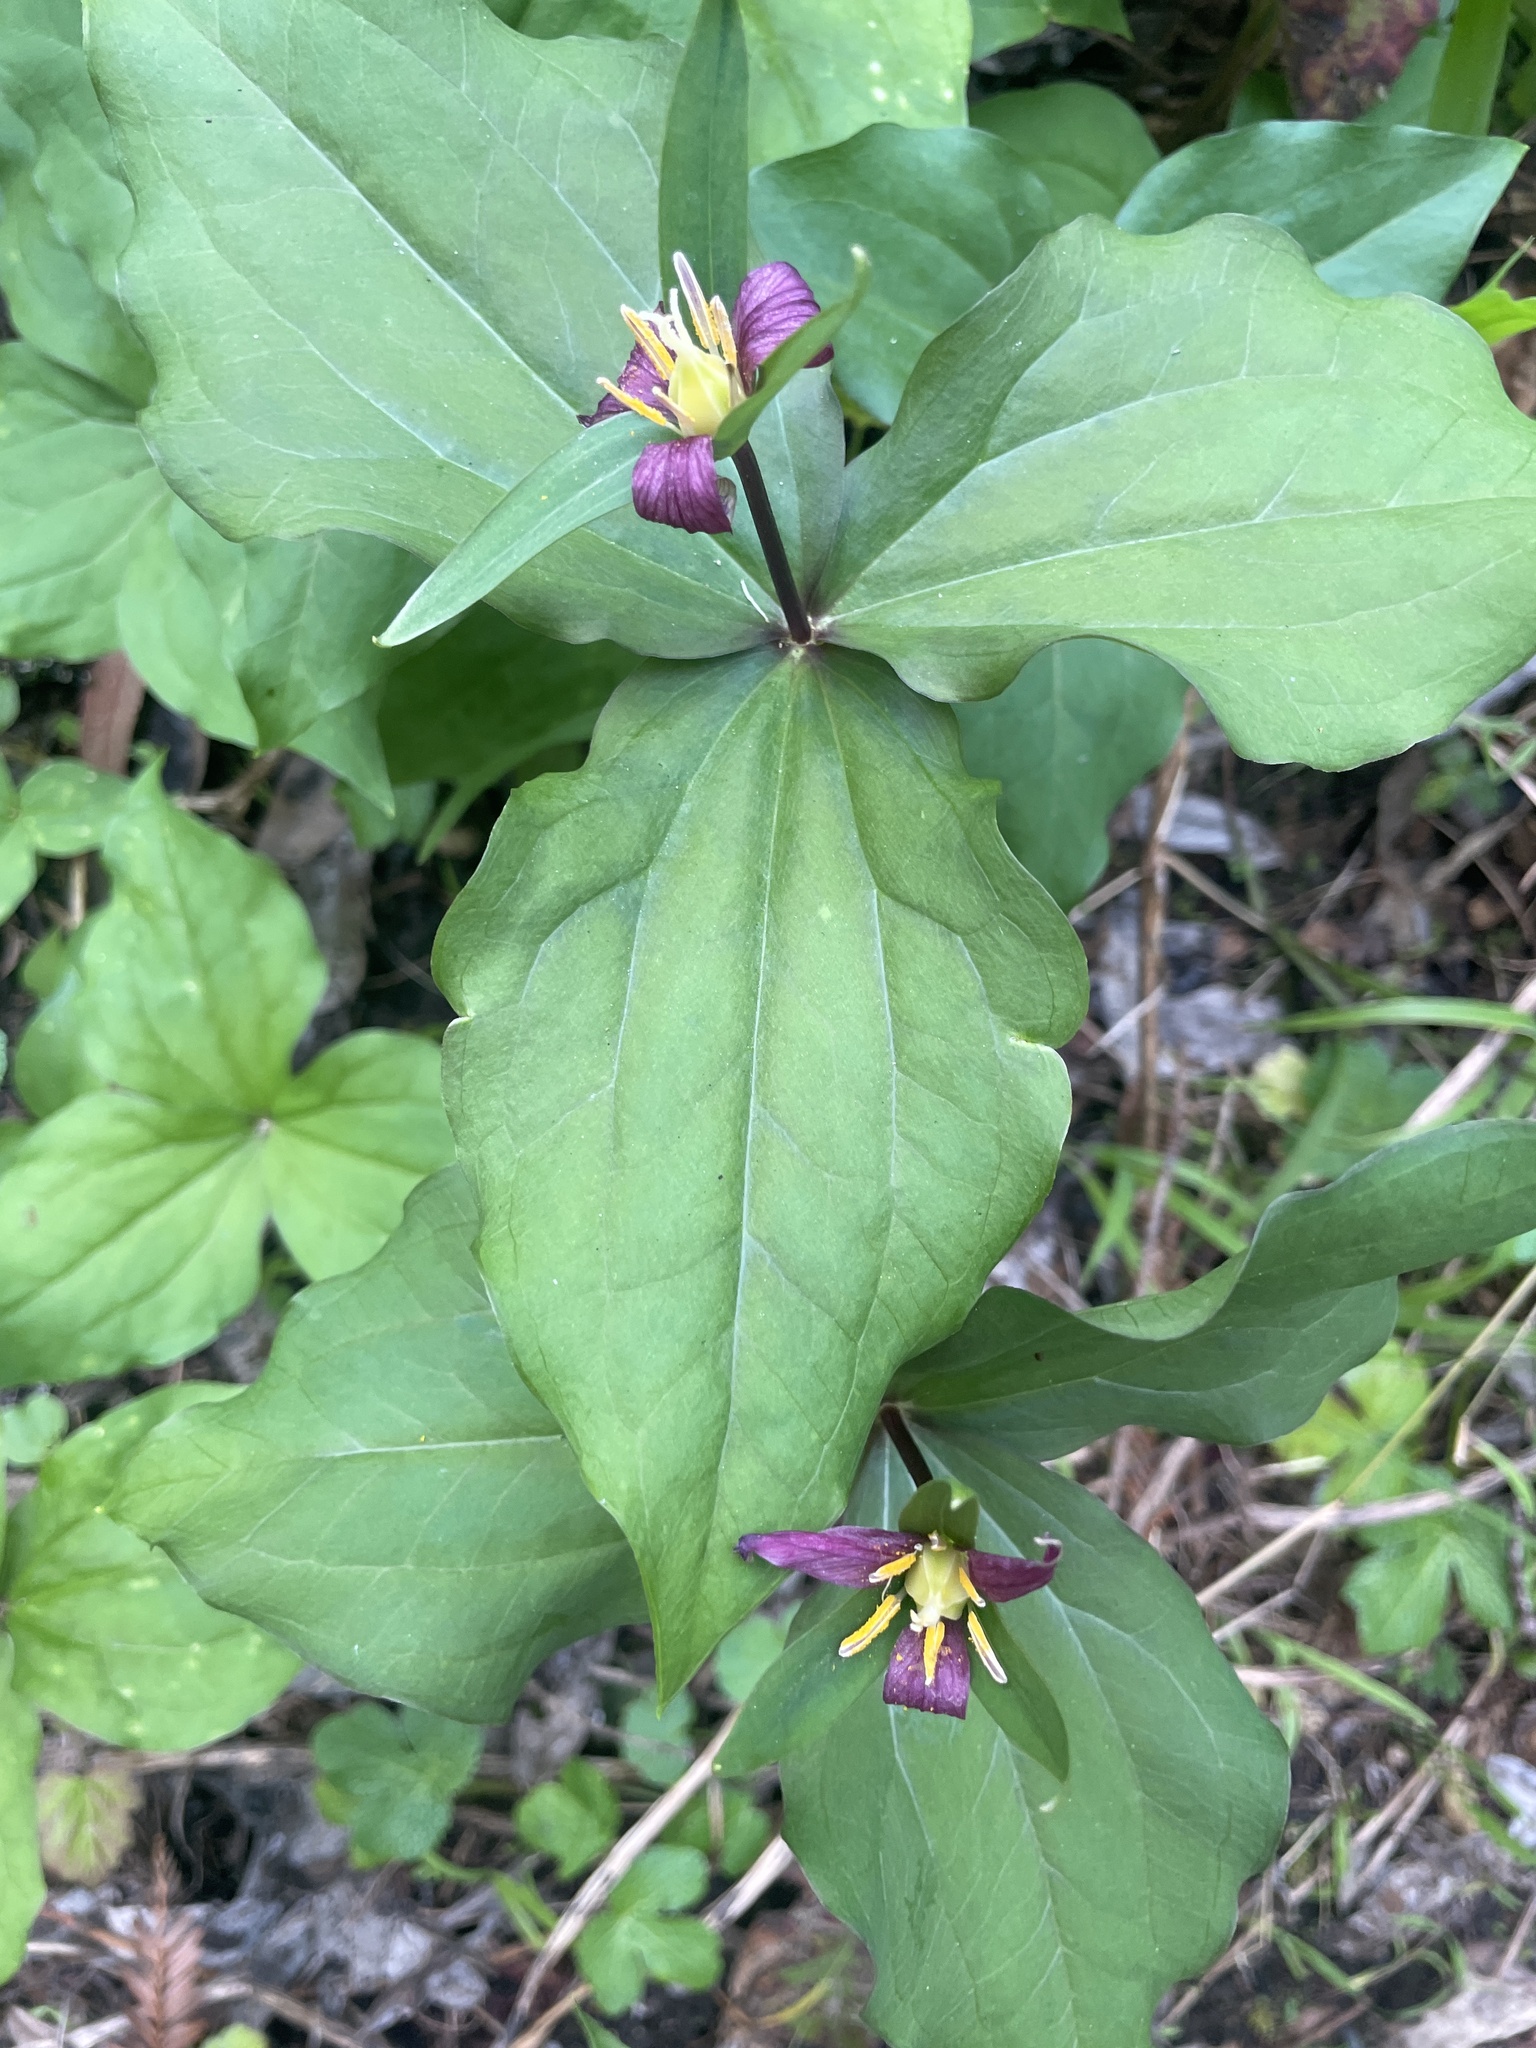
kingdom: Plantae
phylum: Tracheophyta
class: Liliopsida
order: Liliales
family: Melanthiaceae
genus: Trillium
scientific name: Trillium ovatum
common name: Pacific trillium
